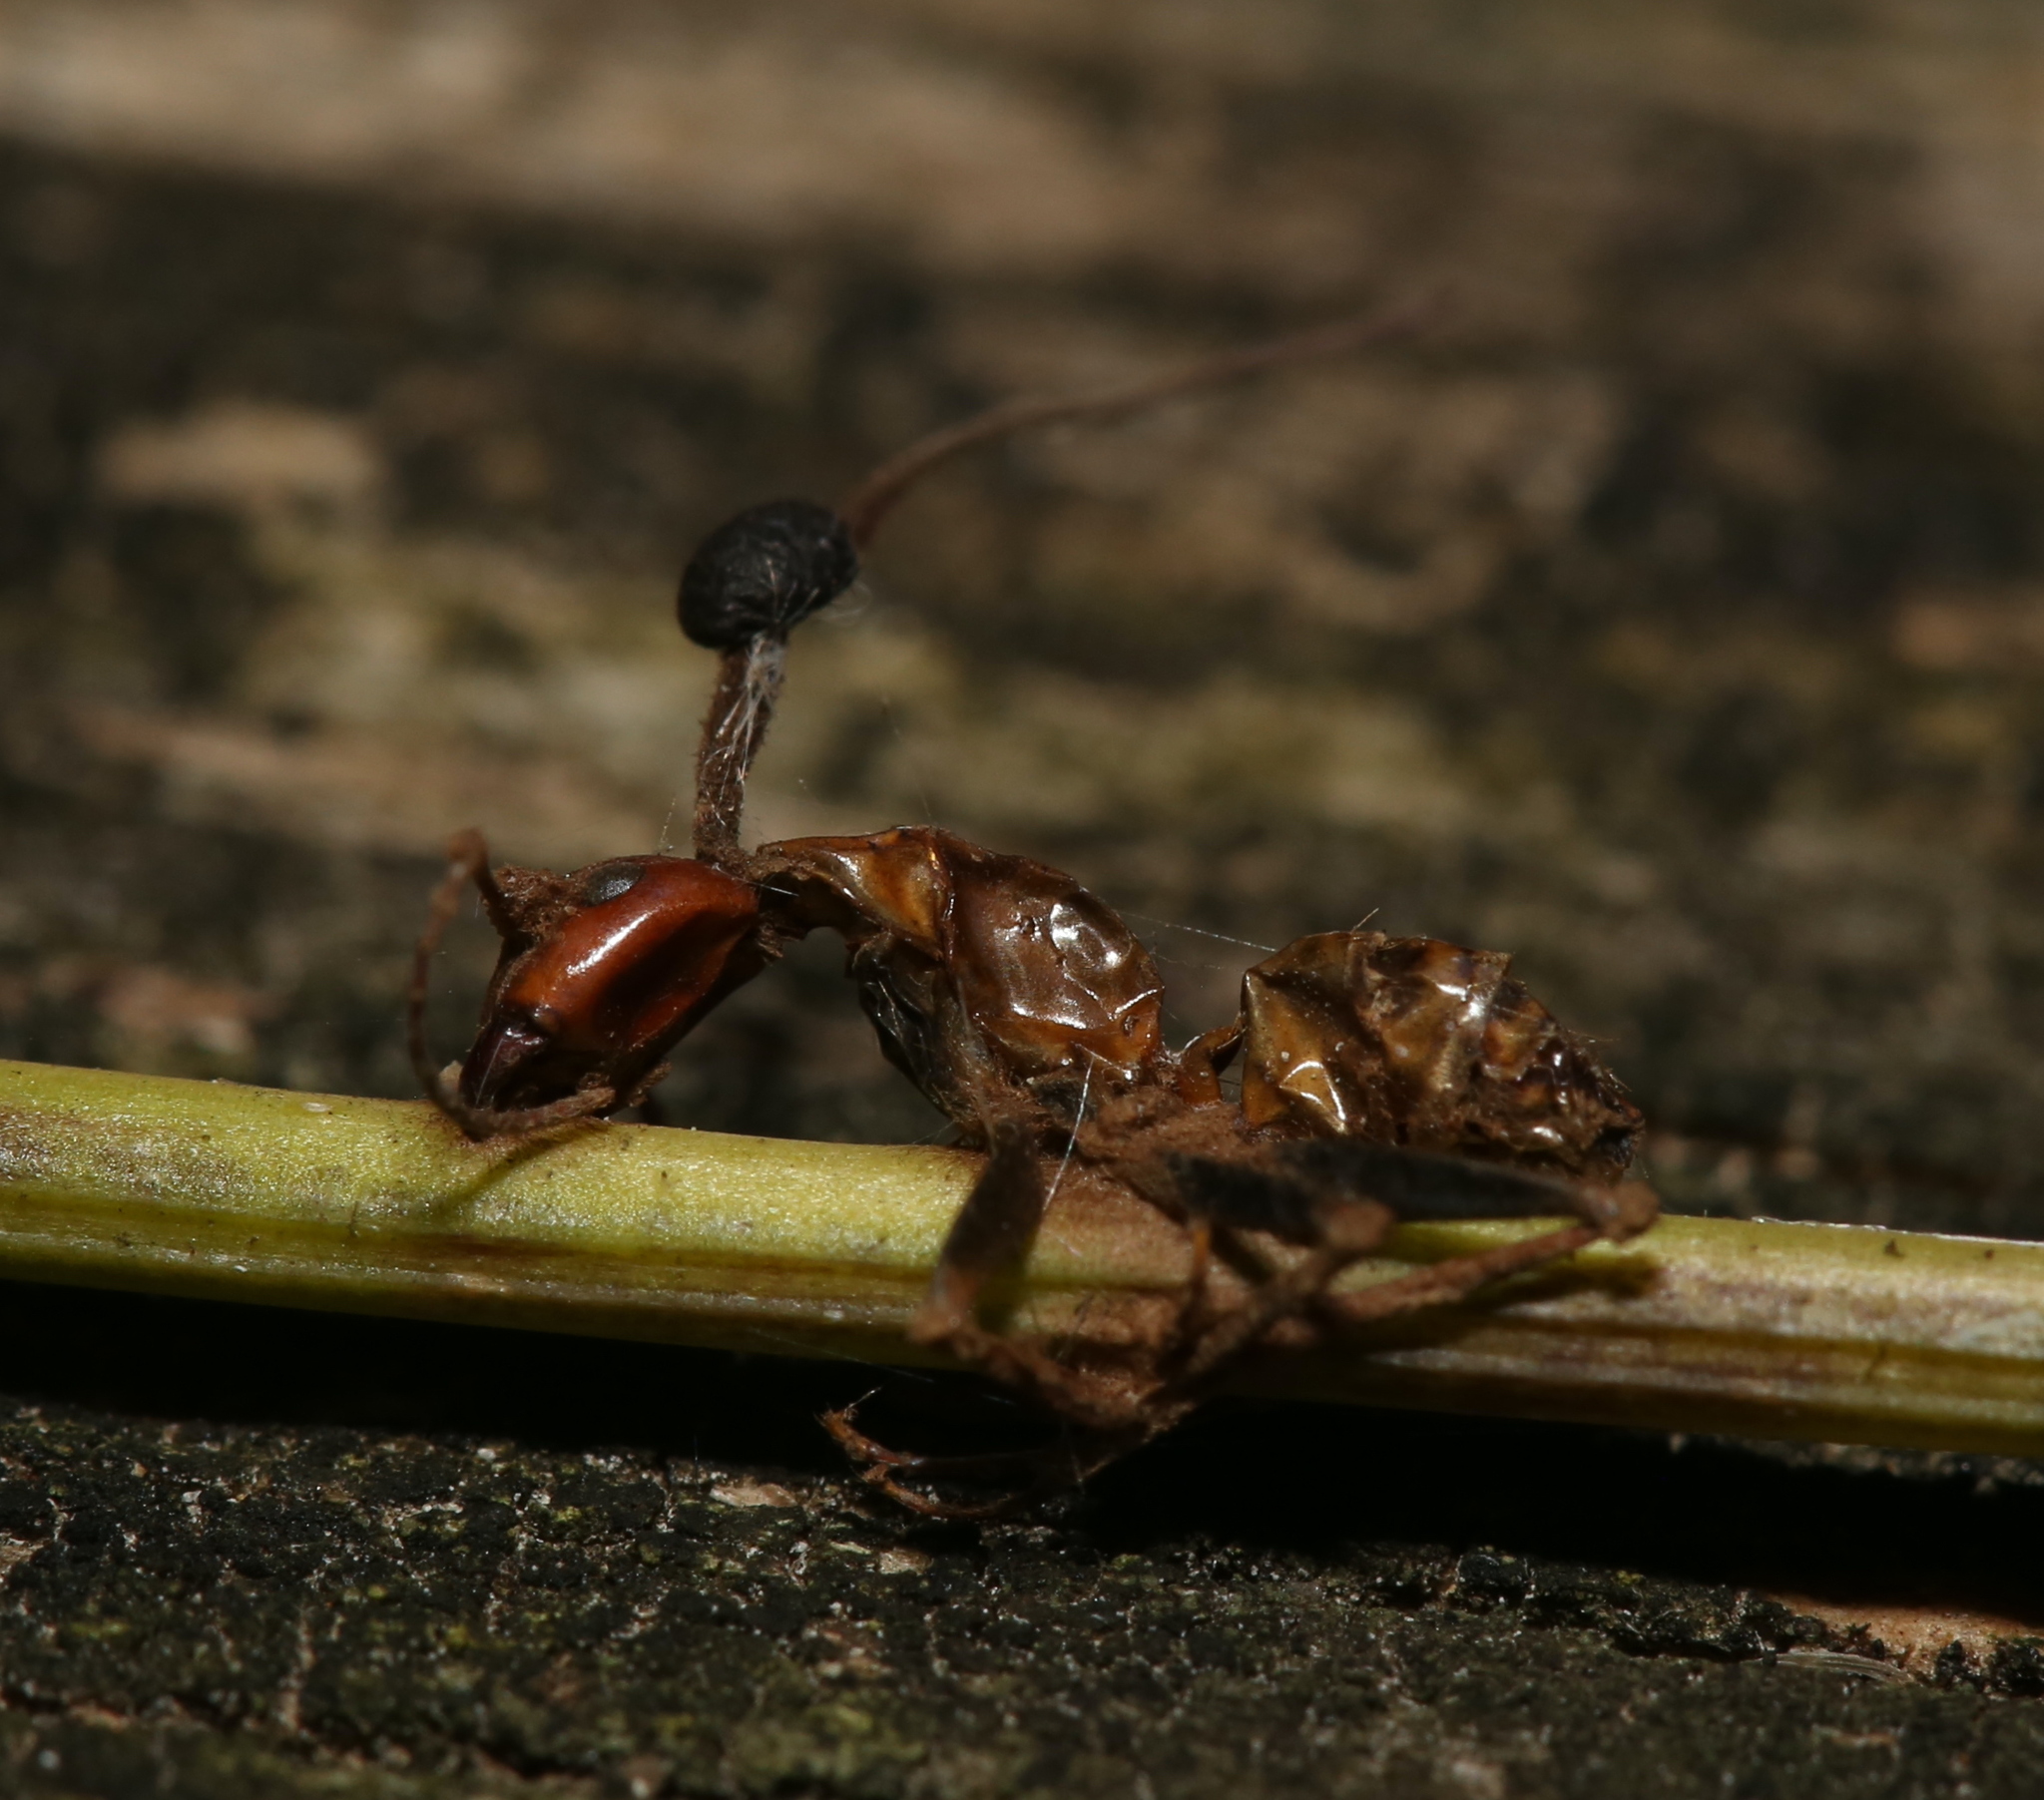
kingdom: Fungi
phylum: Ascomycota
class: Sordariomycetes
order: Hypocreales
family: Ophiocordycipitaceae
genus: Ophiocordyceps
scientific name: Ophiocordyceps kimflemingiae
